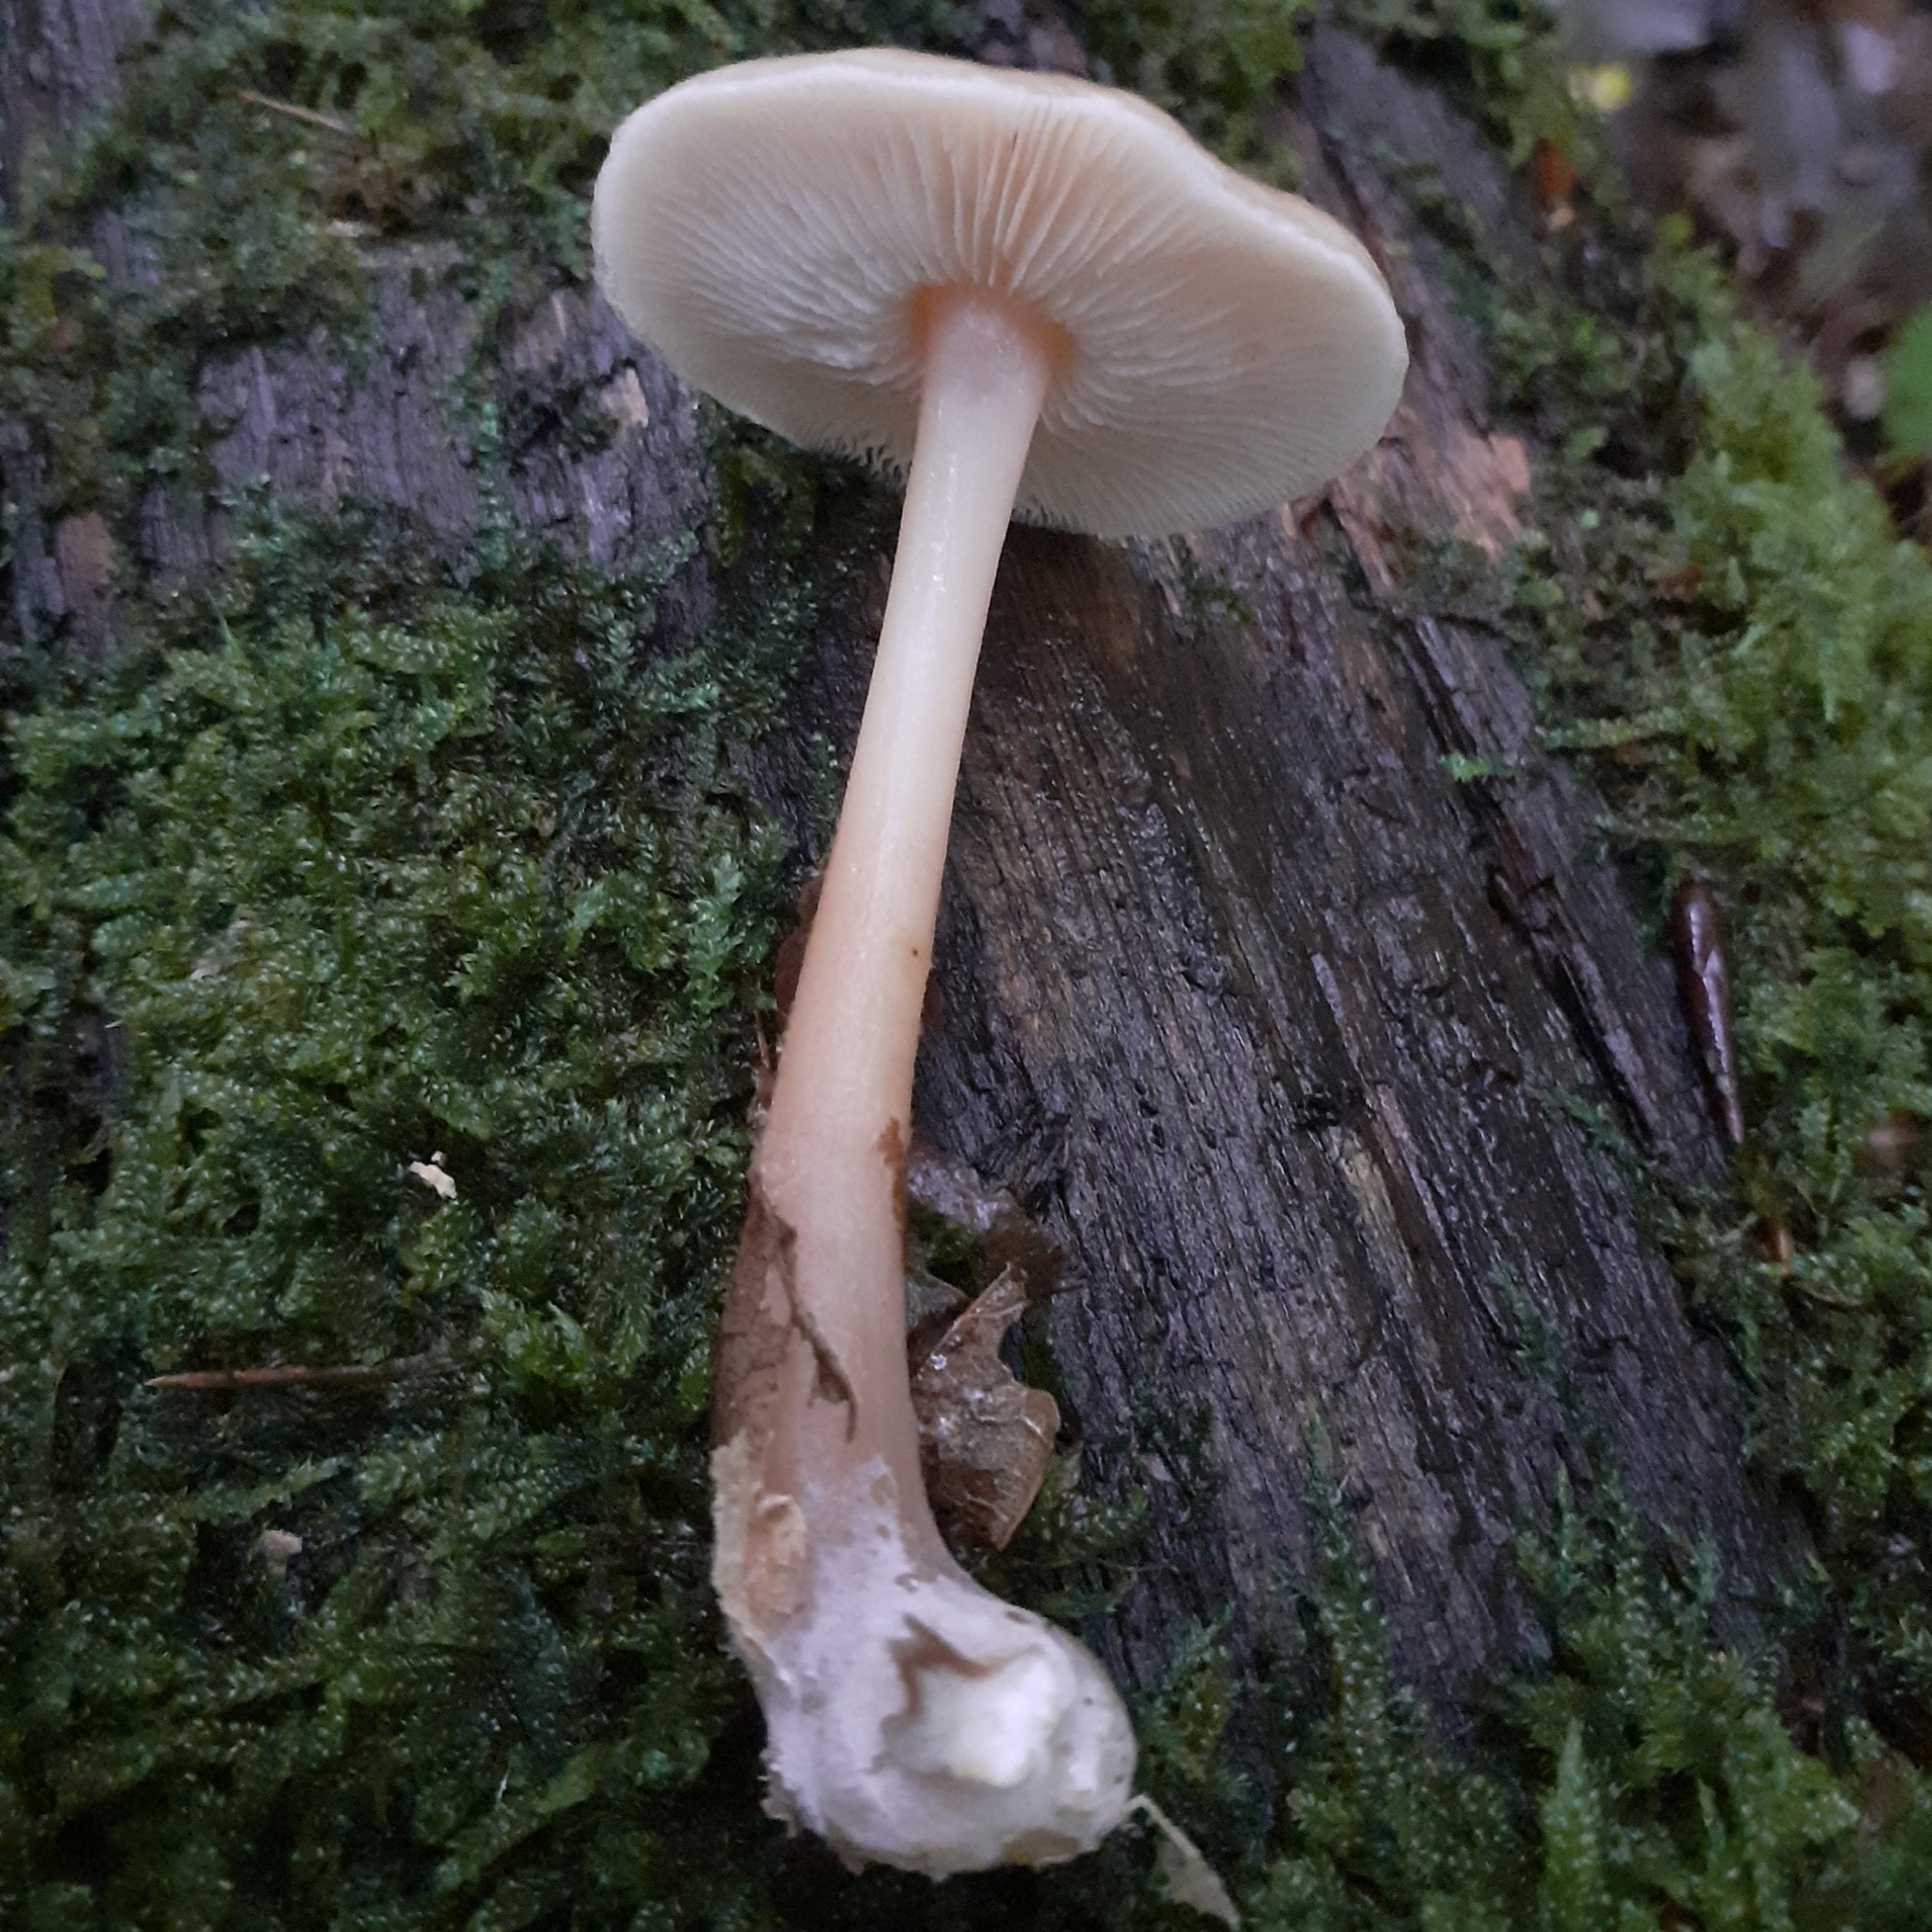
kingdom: Fungi
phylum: Basidiomycota
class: Agaricomycetes
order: Agaricales
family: Omphalotaceae
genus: Rhodocollybia
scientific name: Rhodocollybia butyracea
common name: Butter cap
